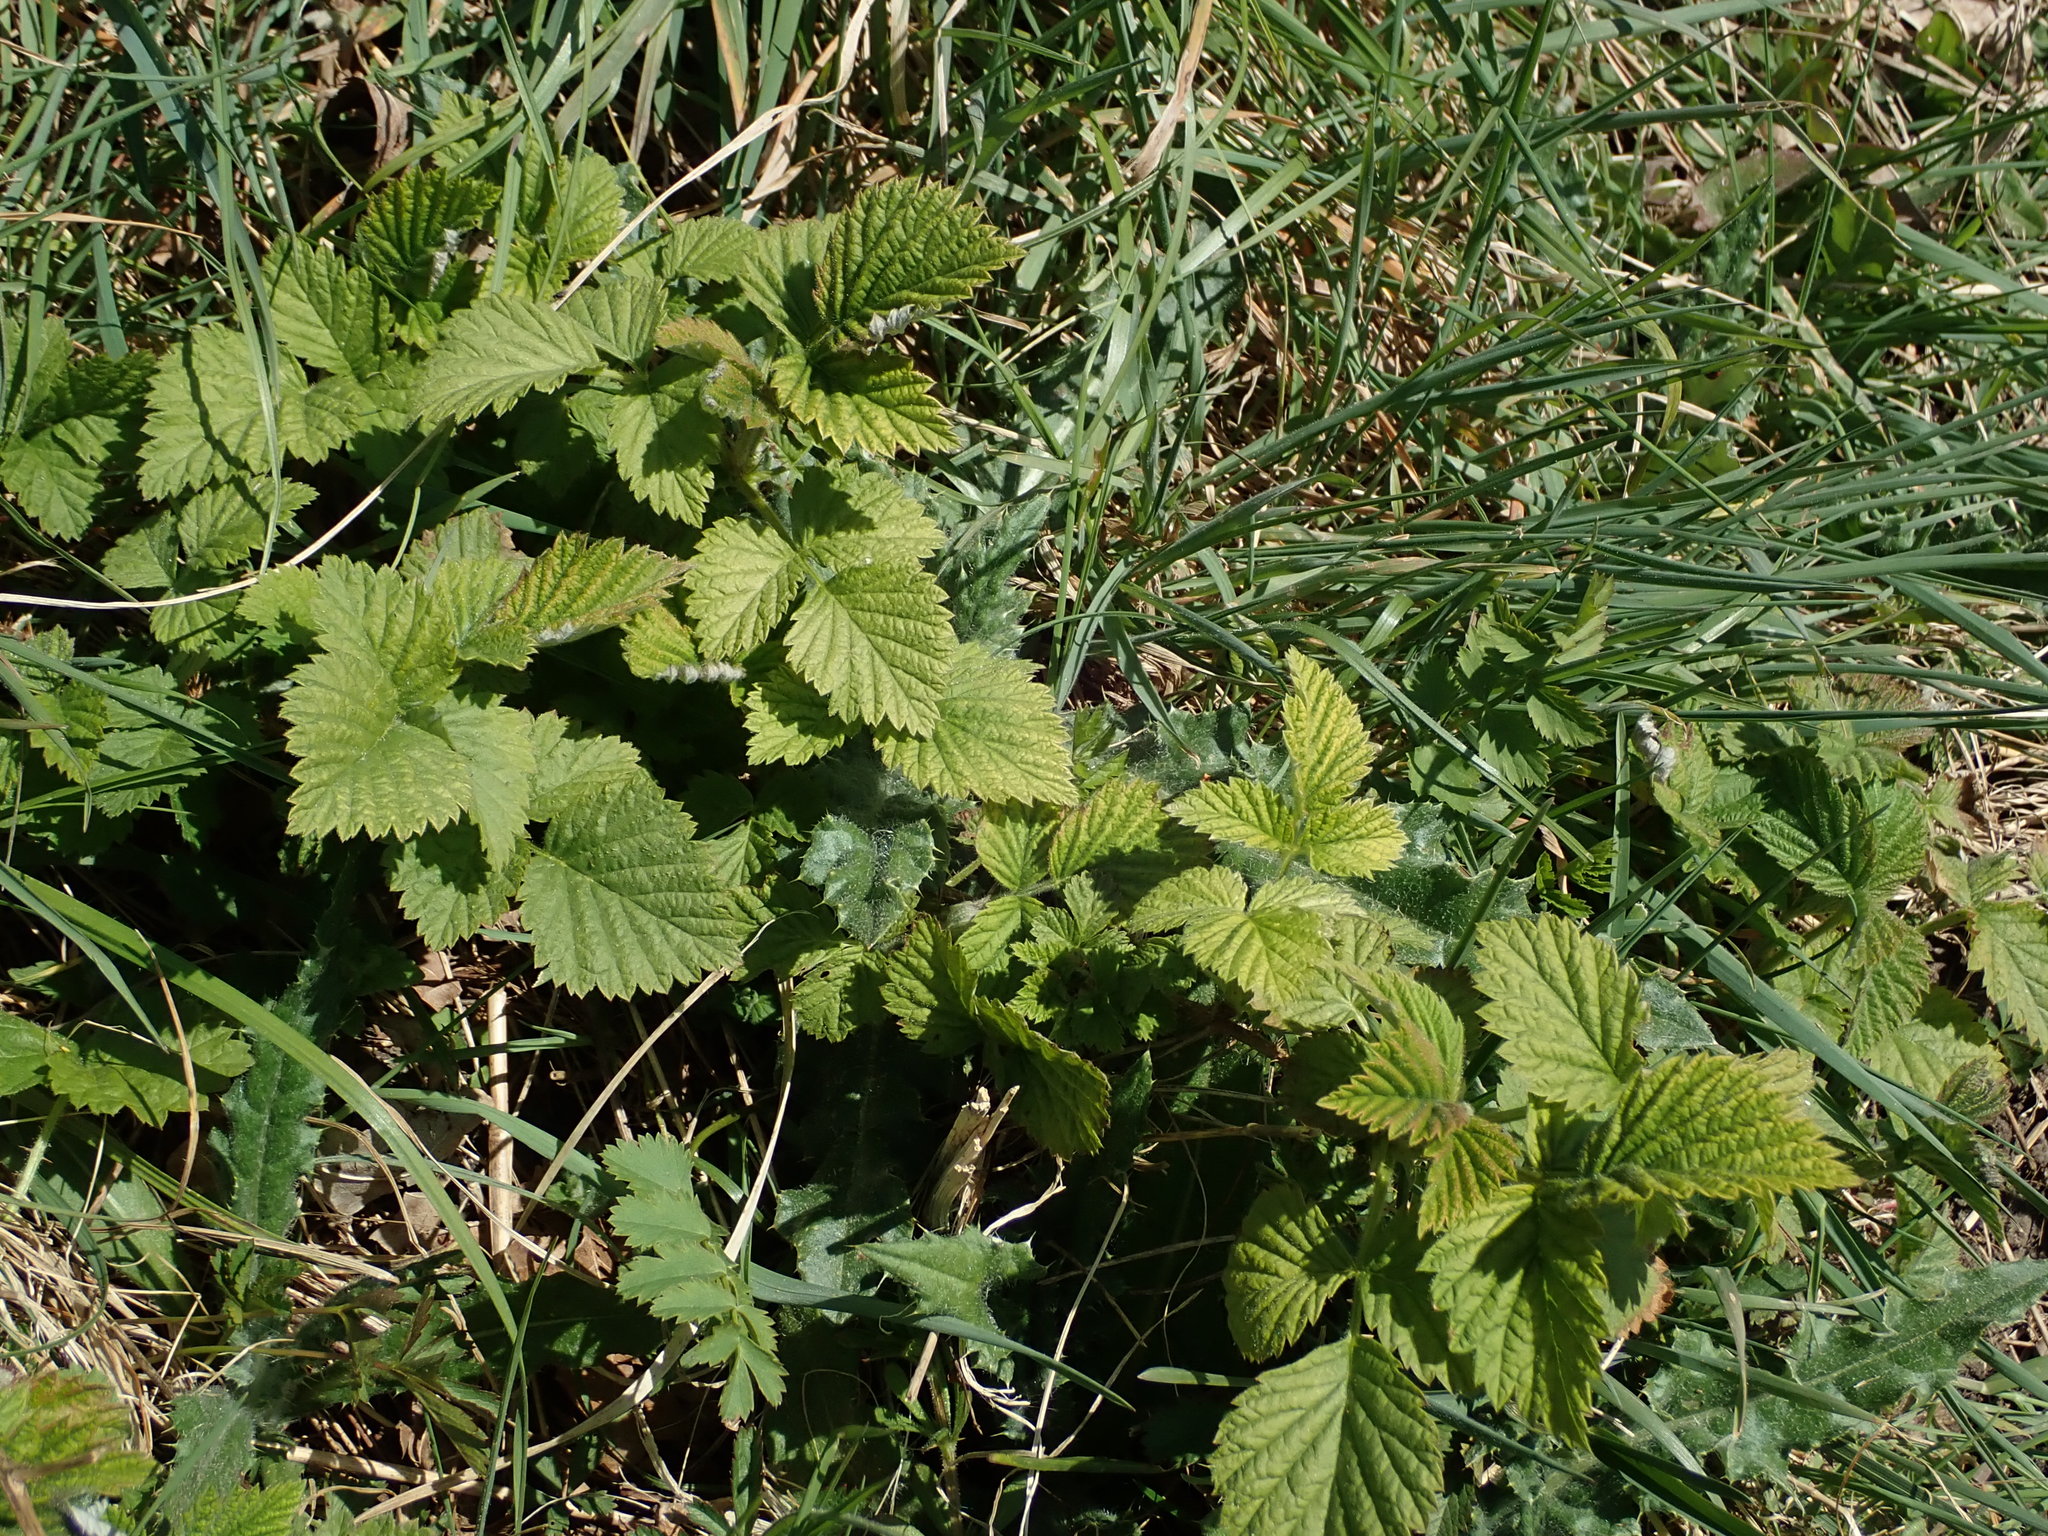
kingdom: Plantae
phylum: Tracheophyta
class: Magnoliopsida
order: Rosales
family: Rosaceae
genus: Rubus
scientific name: Rubus idaeus
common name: Raspberry
